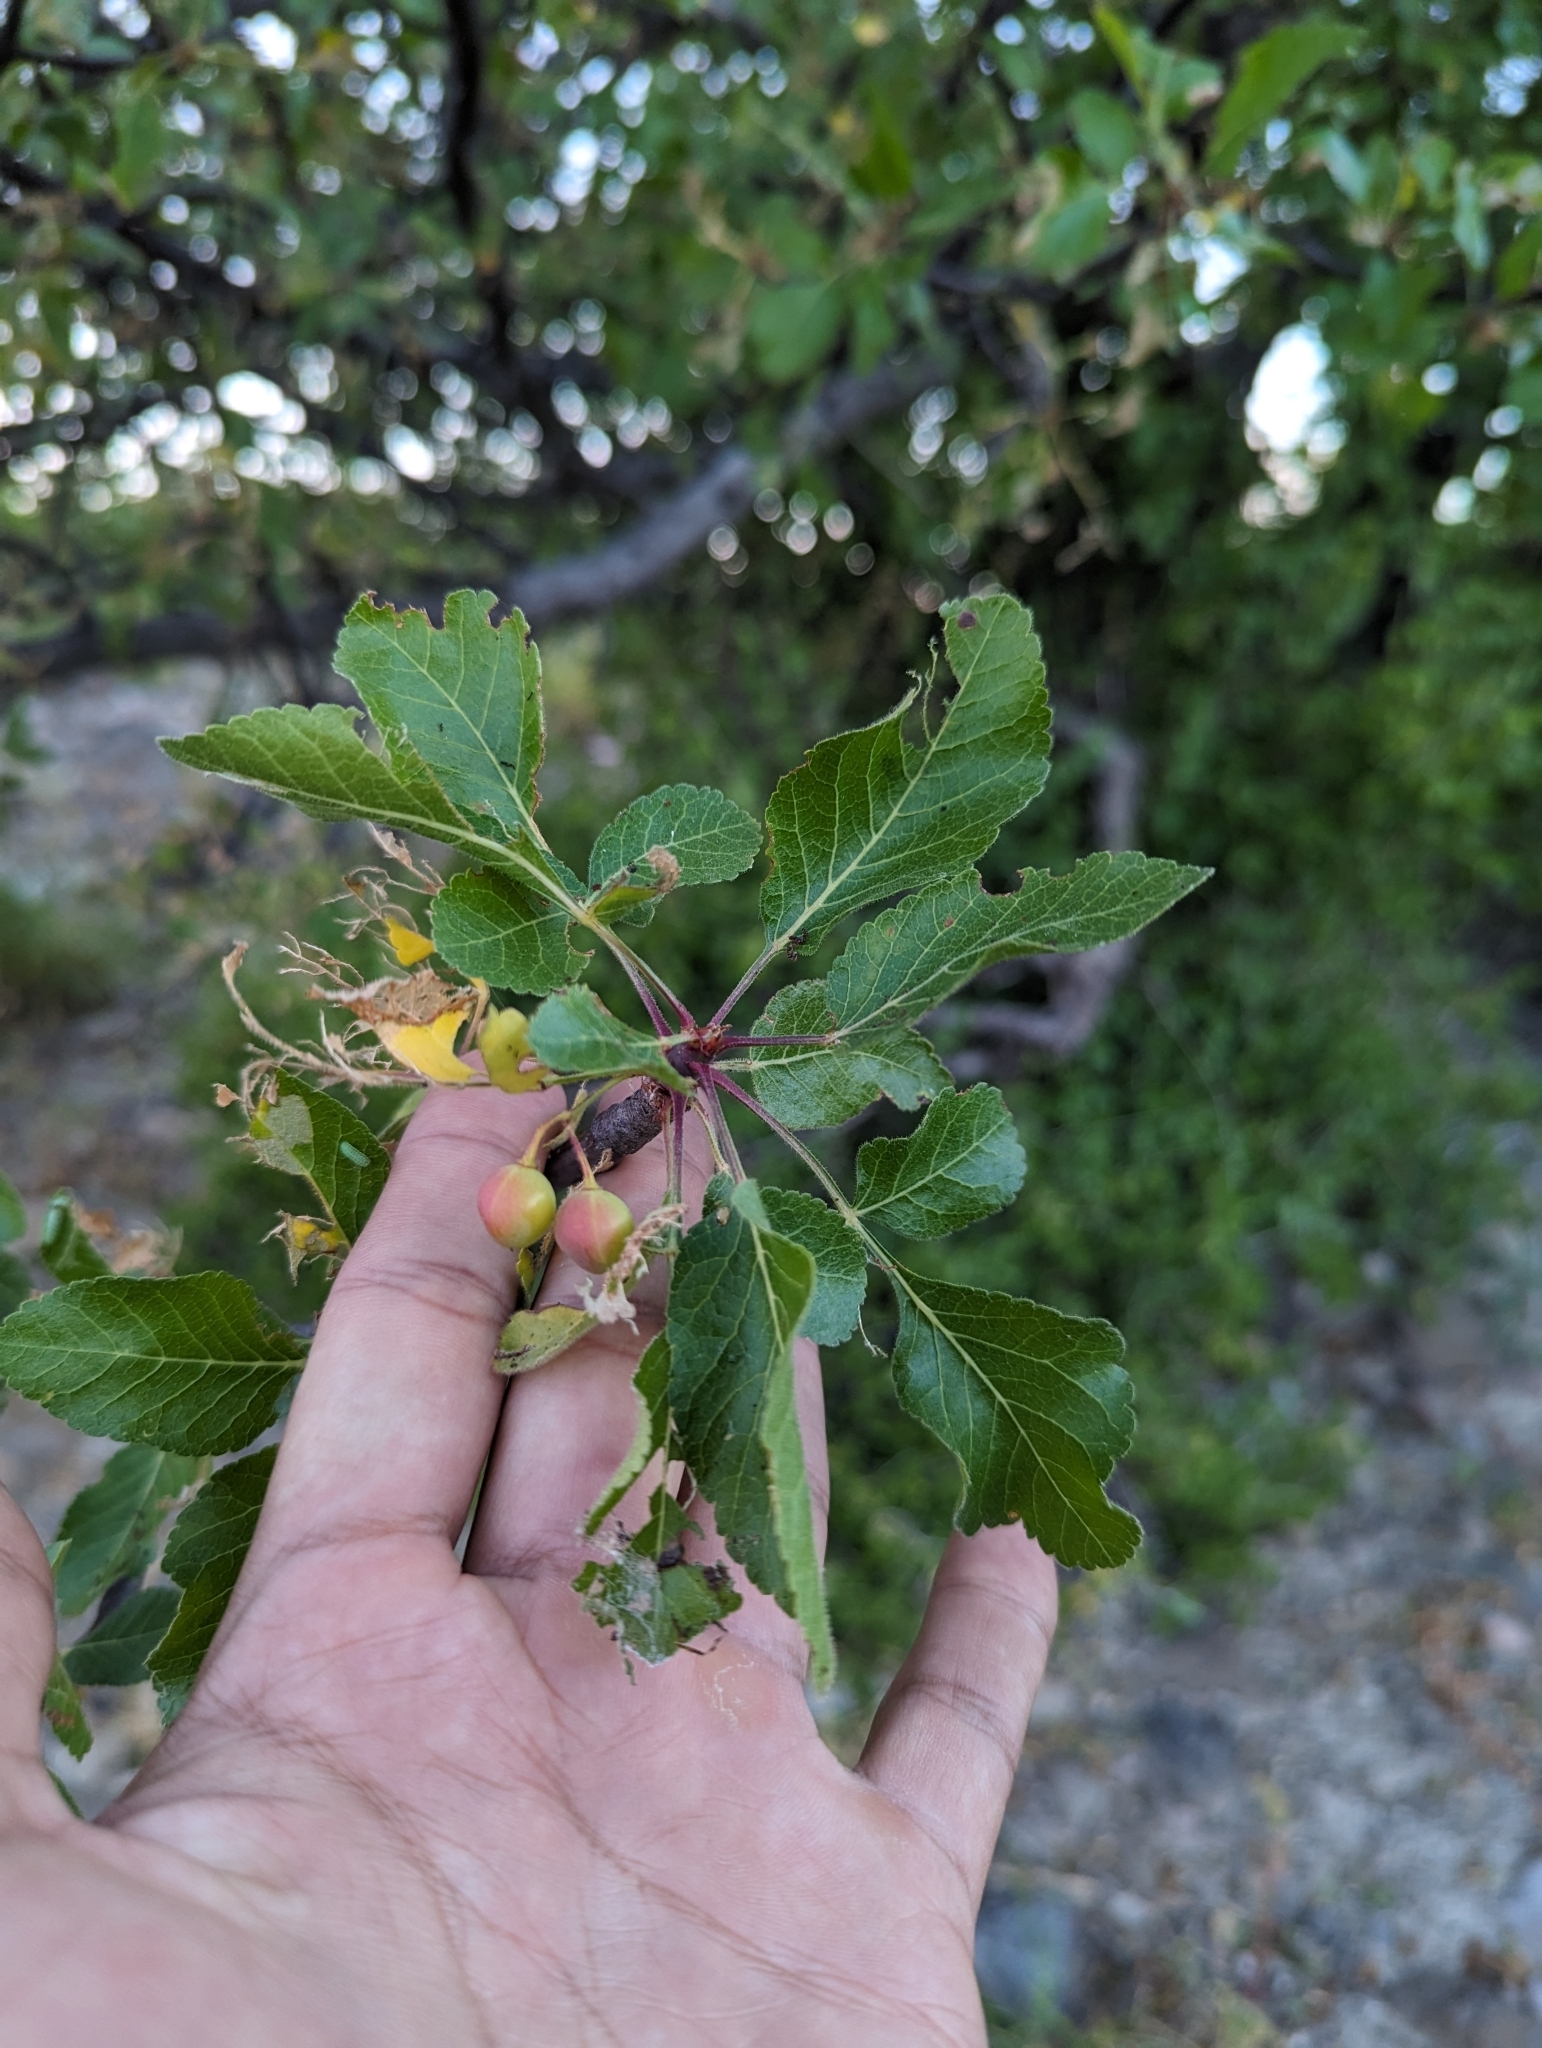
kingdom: Plantae
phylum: Tracheophyta
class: Magnoliopsida
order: Sapindales
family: Burseraceae
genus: Bursera
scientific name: Bursera epinnata
